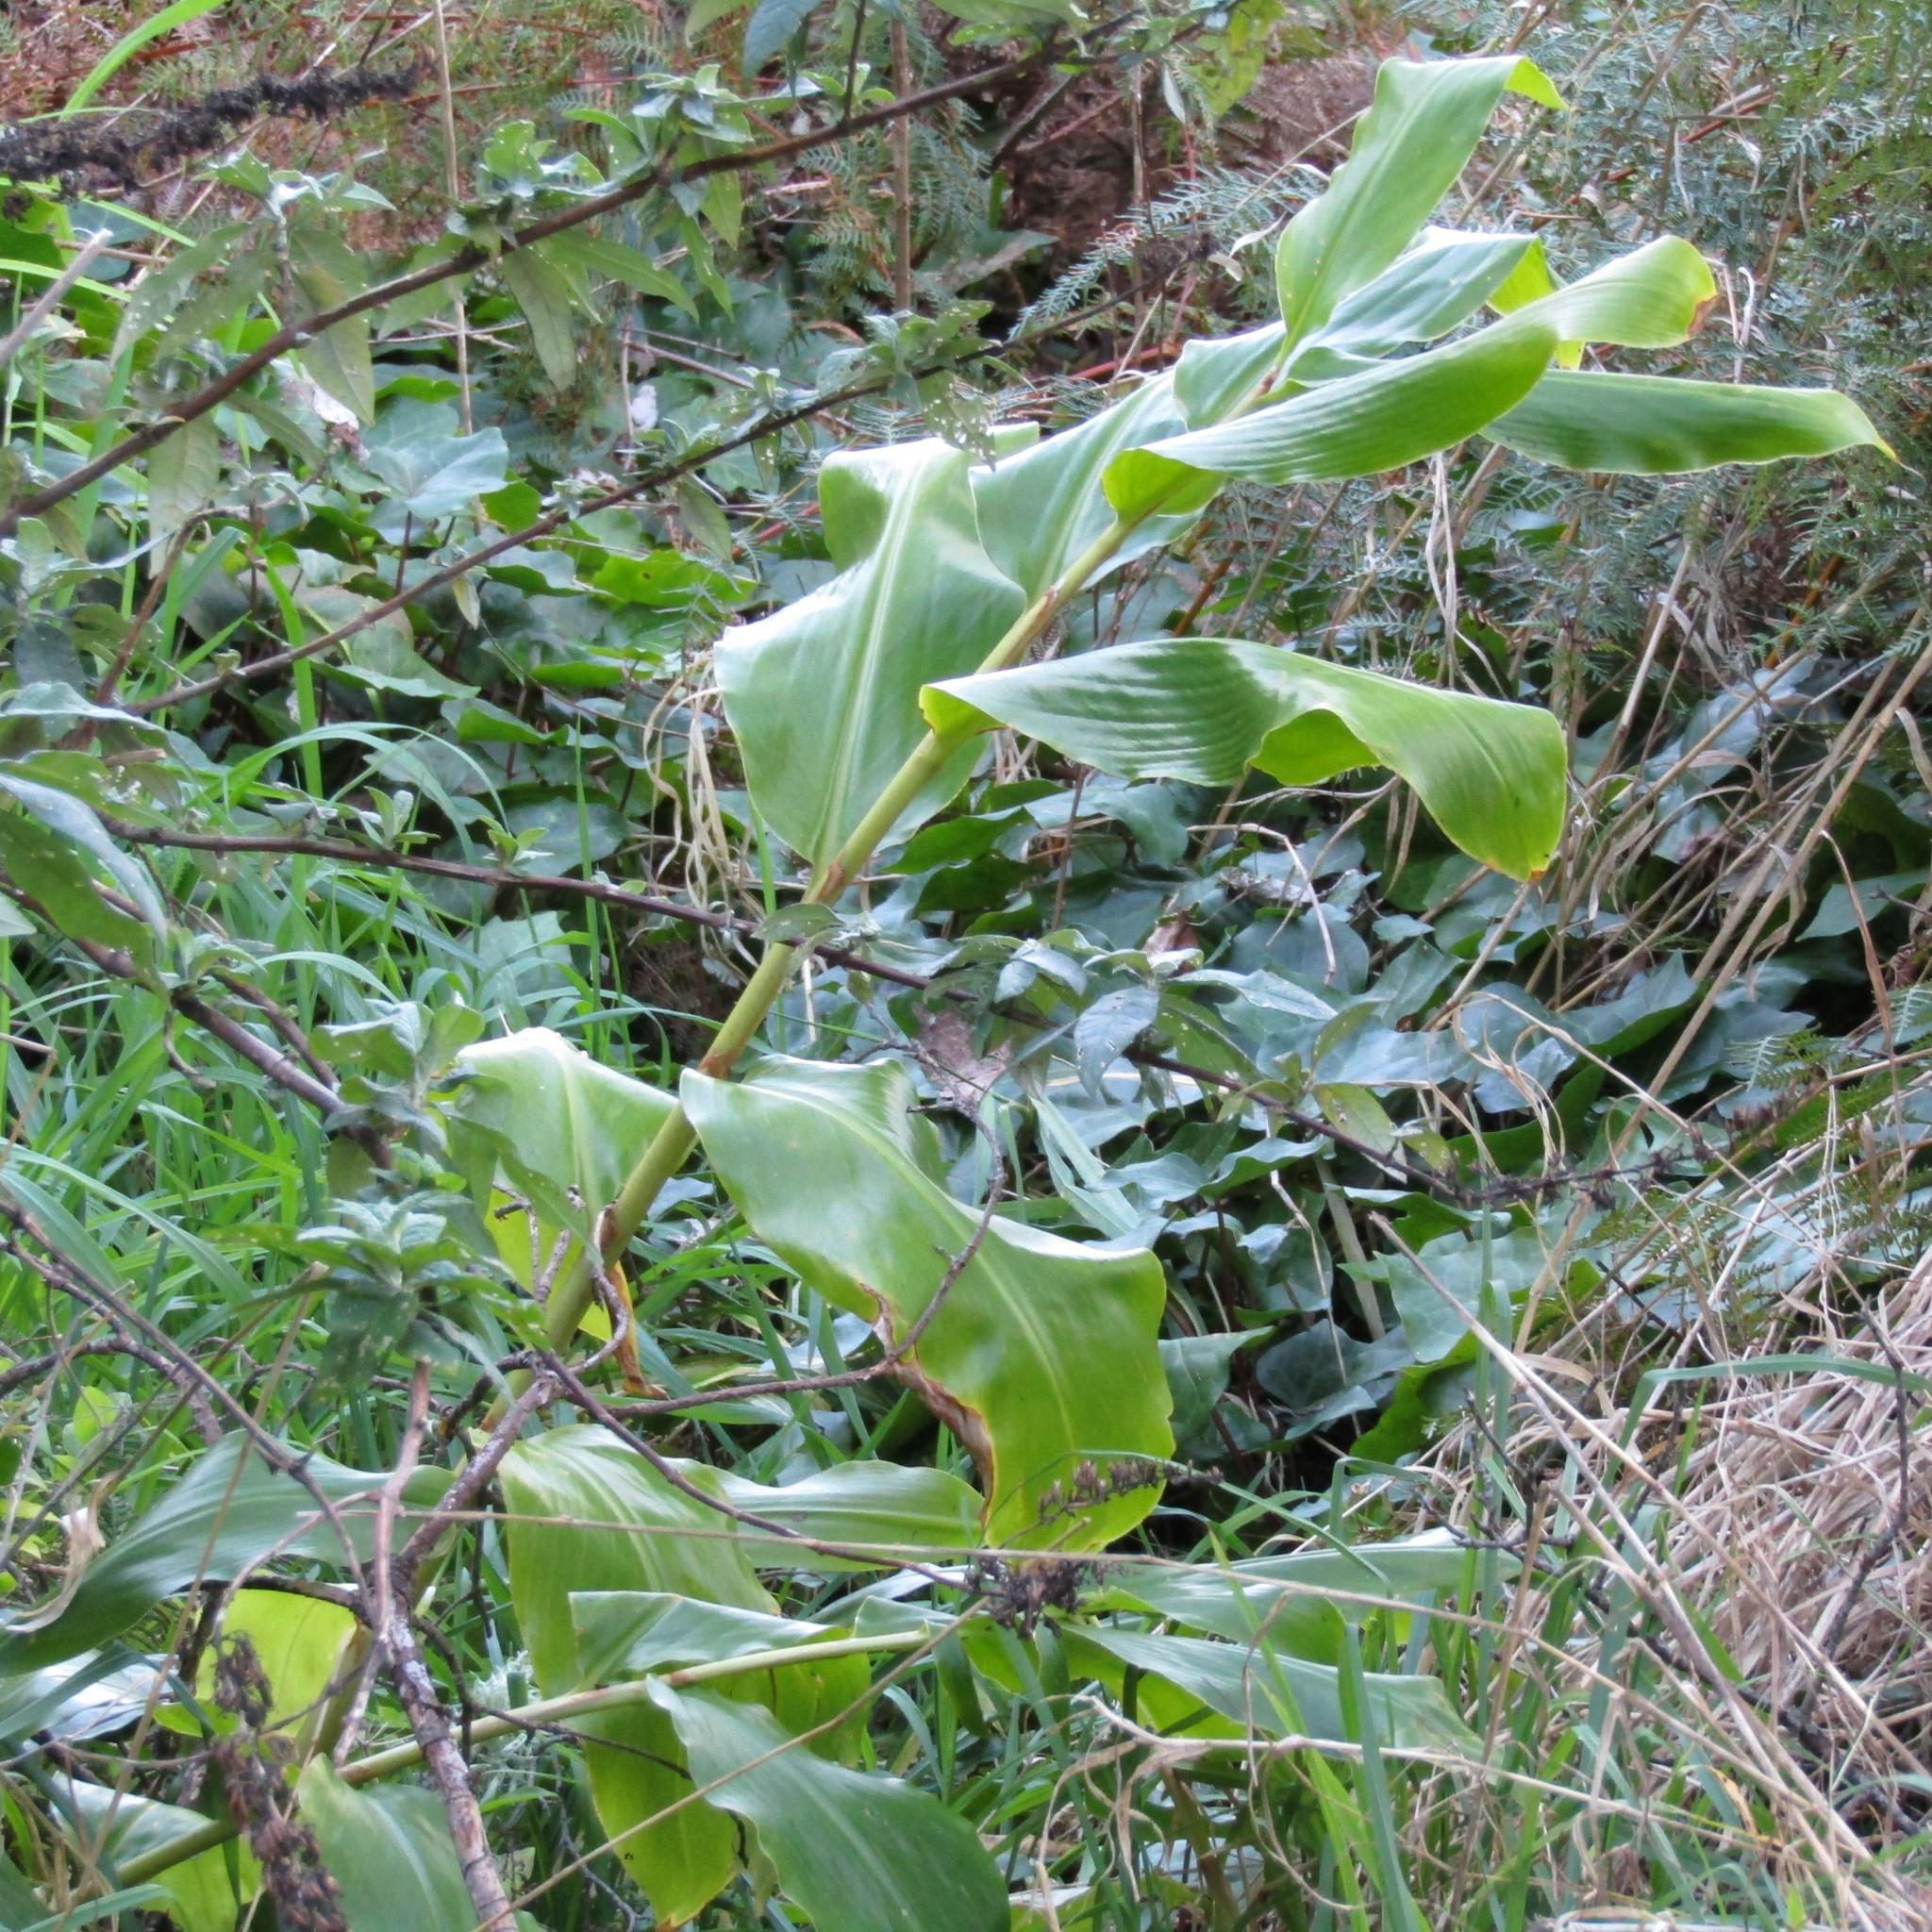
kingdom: Plantae
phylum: Tracheophyta
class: Liliopsida
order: Zingiberales
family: Zingiberaceae
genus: Hedychium
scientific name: Hedychium gardnerianum
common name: Himalayan ginger
